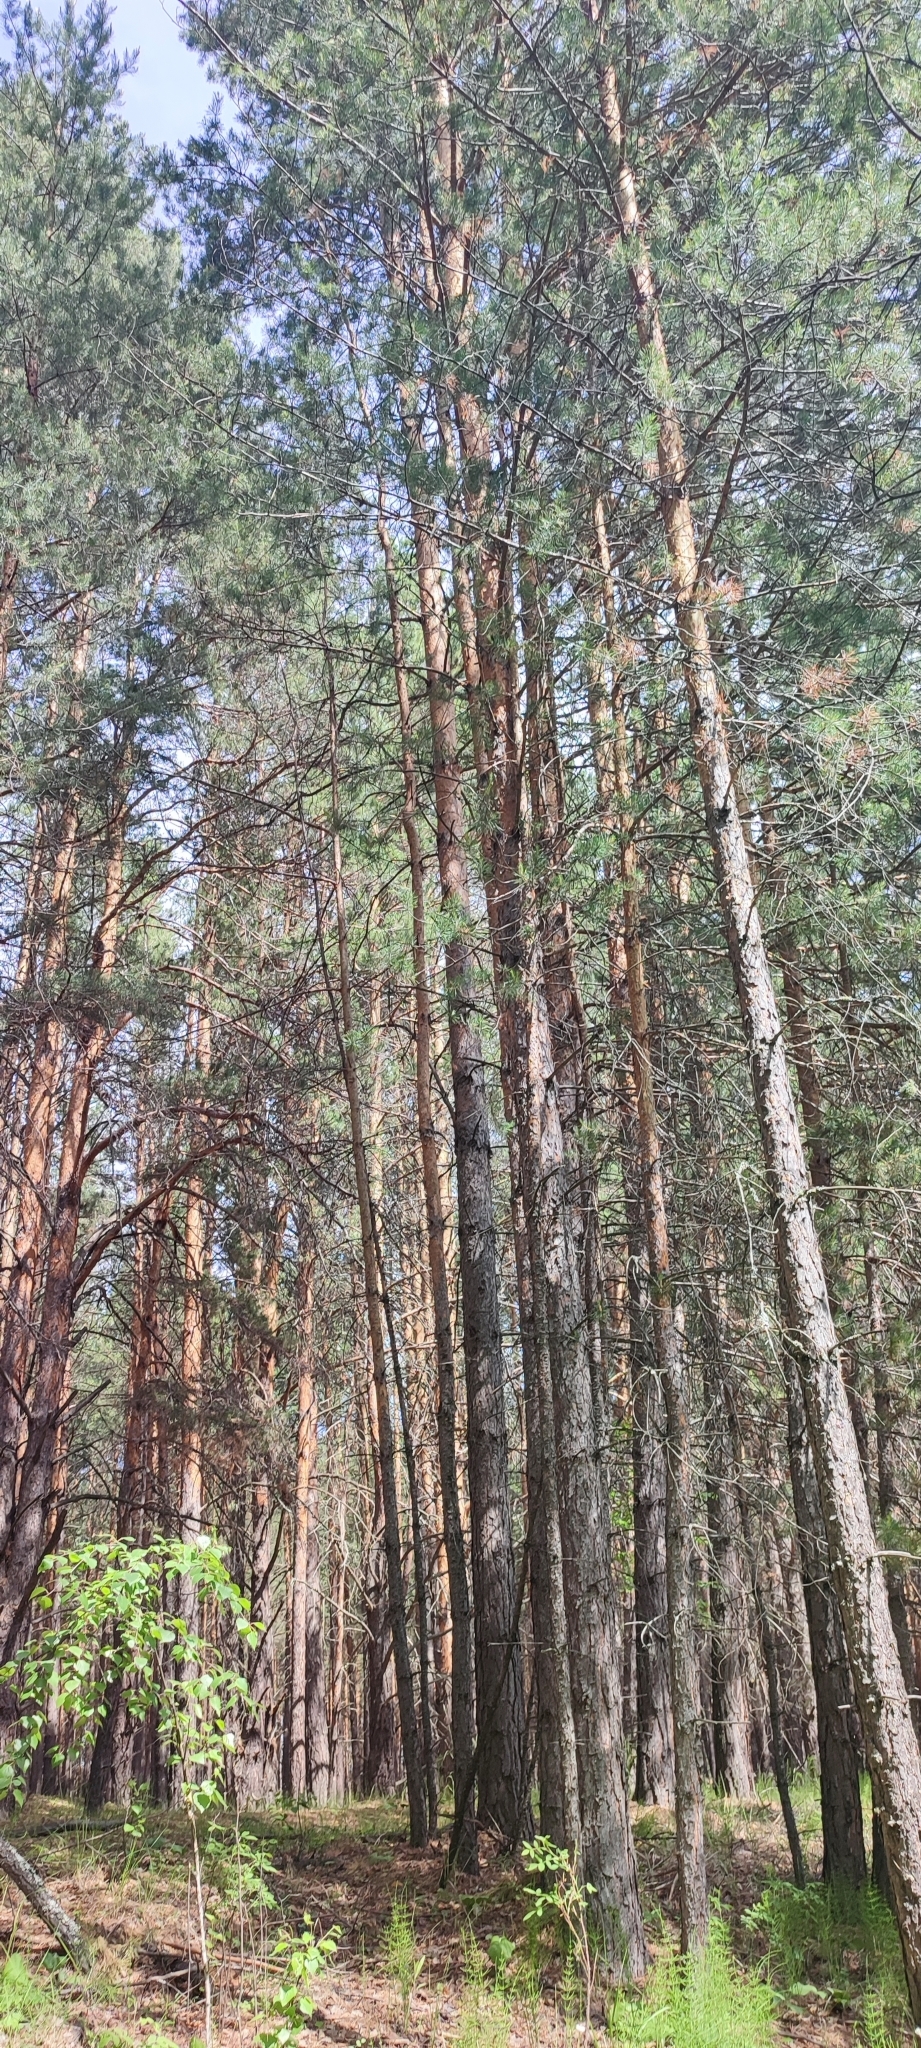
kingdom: Plantae
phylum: Tracheophyta
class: Pinopsida
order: Pinales
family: Pinaceae
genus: Pinus
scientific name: Pinus sylvestris
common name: Scots pine
